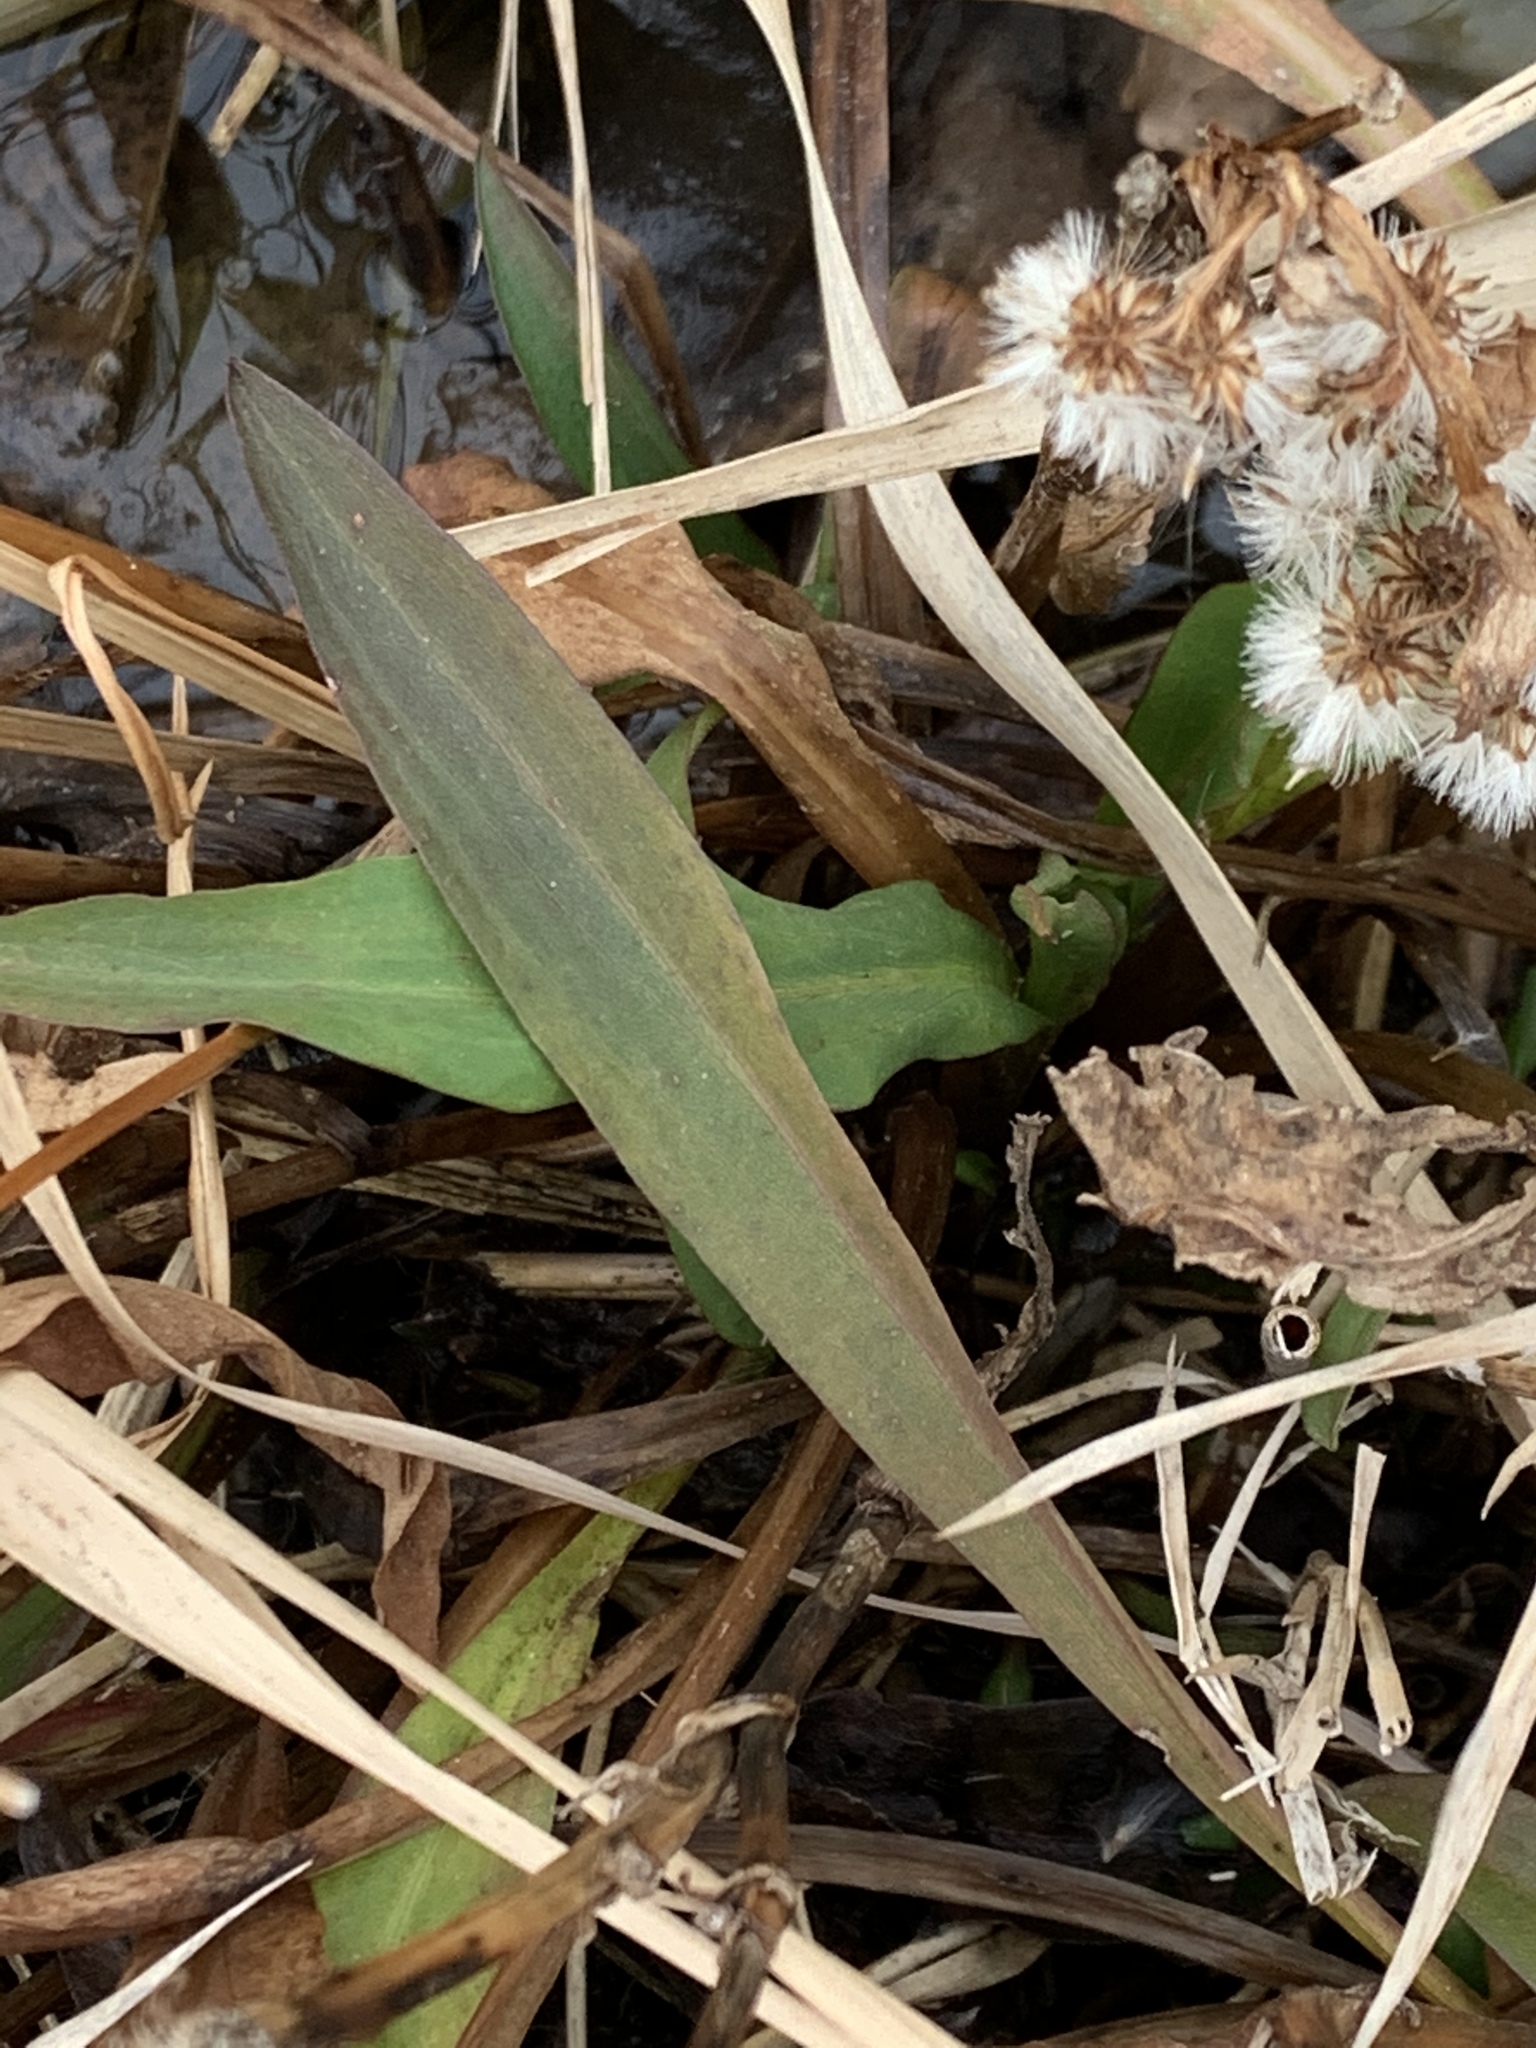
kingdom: Plantae
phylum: Tracheophyta
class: Magnoliopsida
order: Asterales
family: Asteraceae
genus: Solidago
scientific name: Solidago sempervirens
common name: Salt-marsh goldenrod
